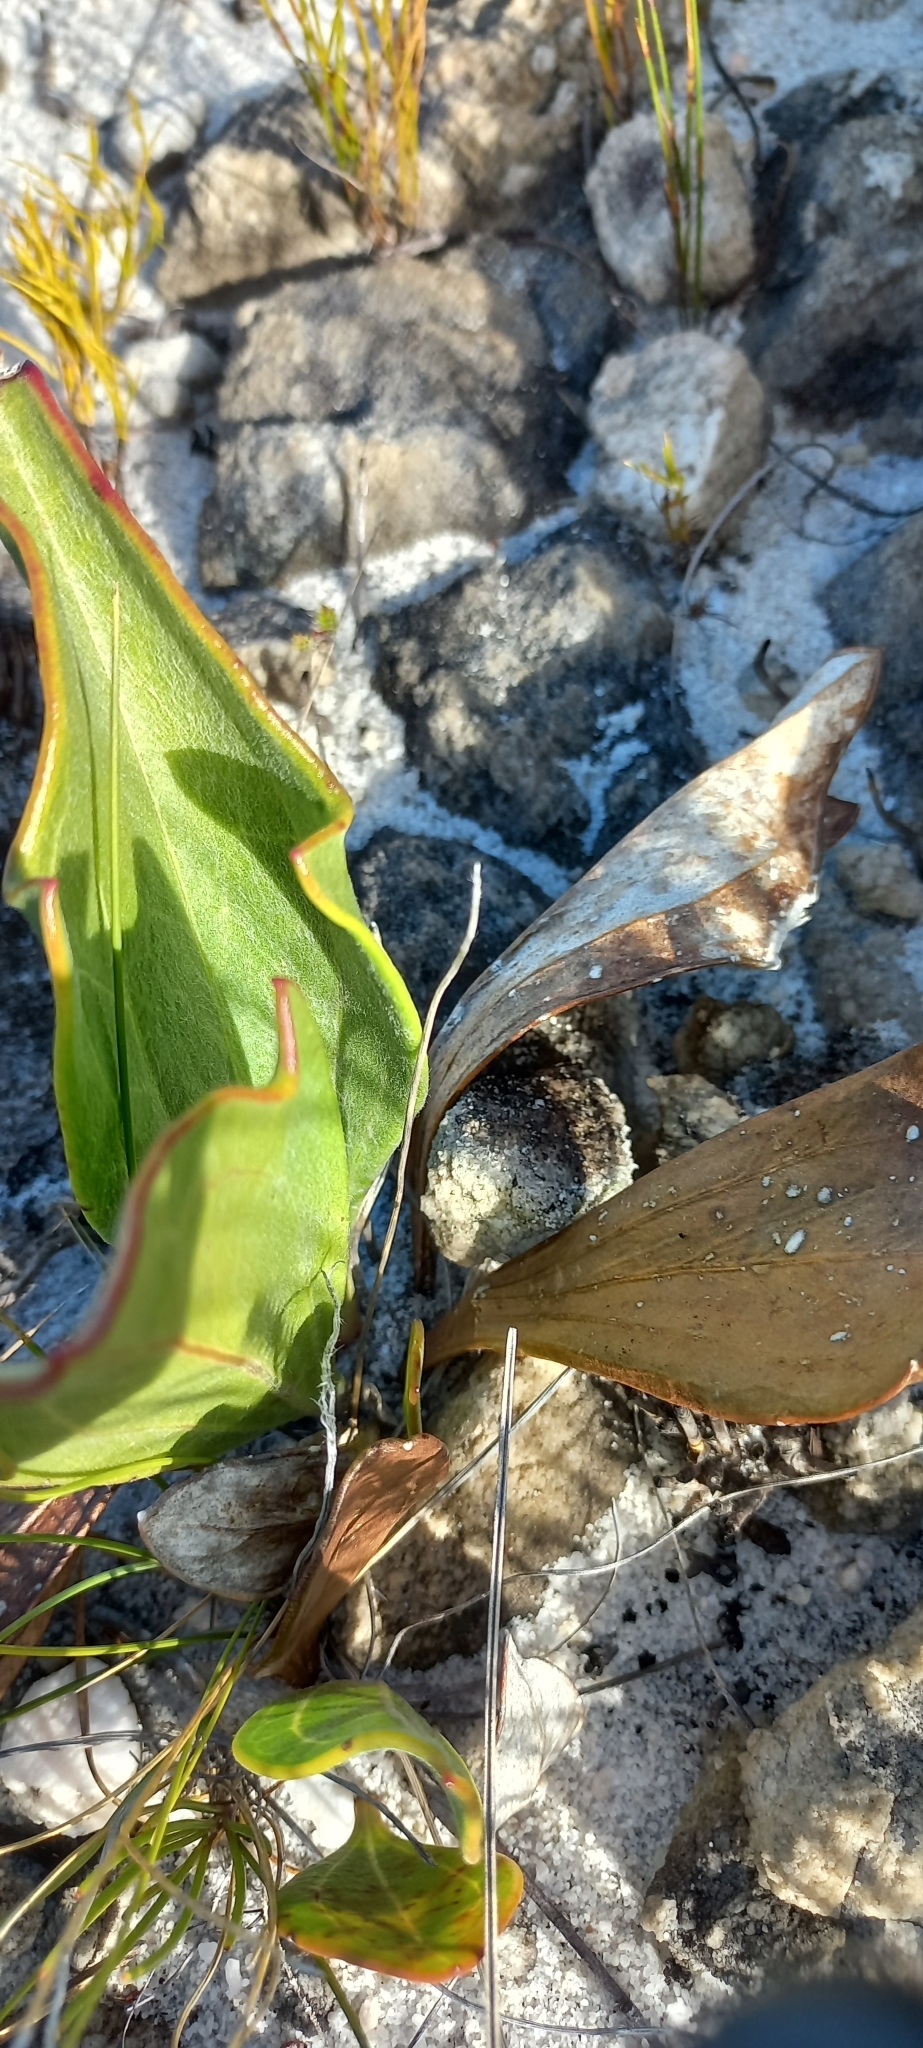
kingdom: Plantae
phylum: Tracheophyta
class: Magnoliopsida
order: Asterales
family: Asteraceae
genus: Mairia
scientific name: Mairia coriacea
